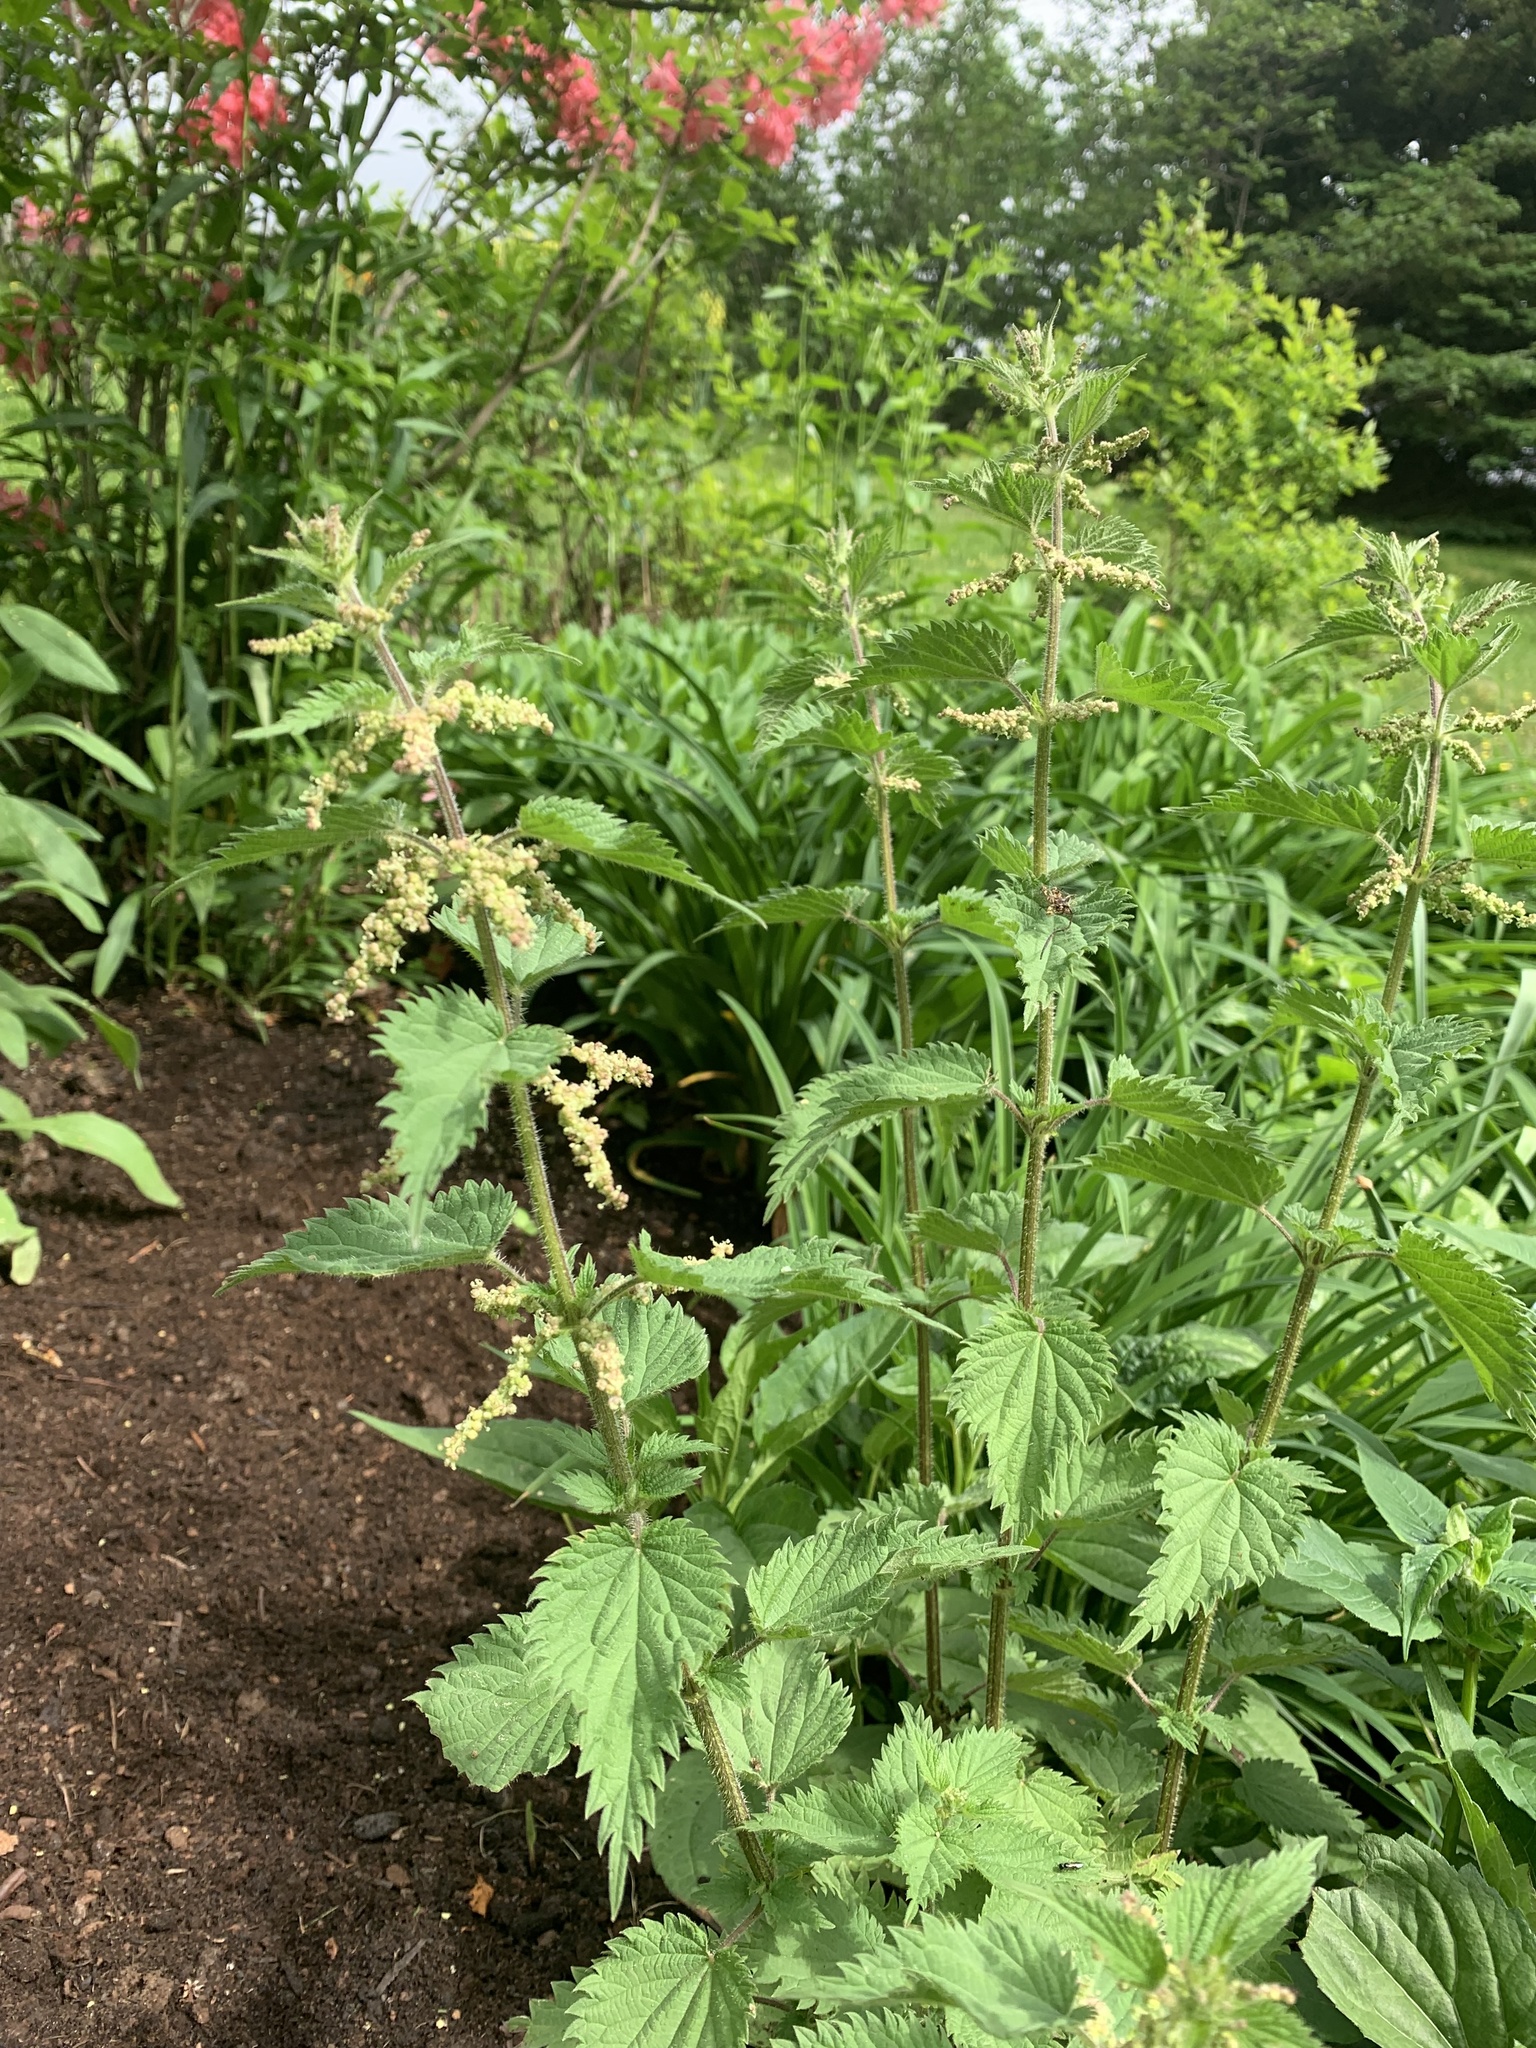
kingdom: Plantae
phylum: Tracheophyta
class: Magnoliopsida
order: Rosales
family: Urticaceae
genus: Urtica
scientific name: Urtica dioica
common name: Common nettle
